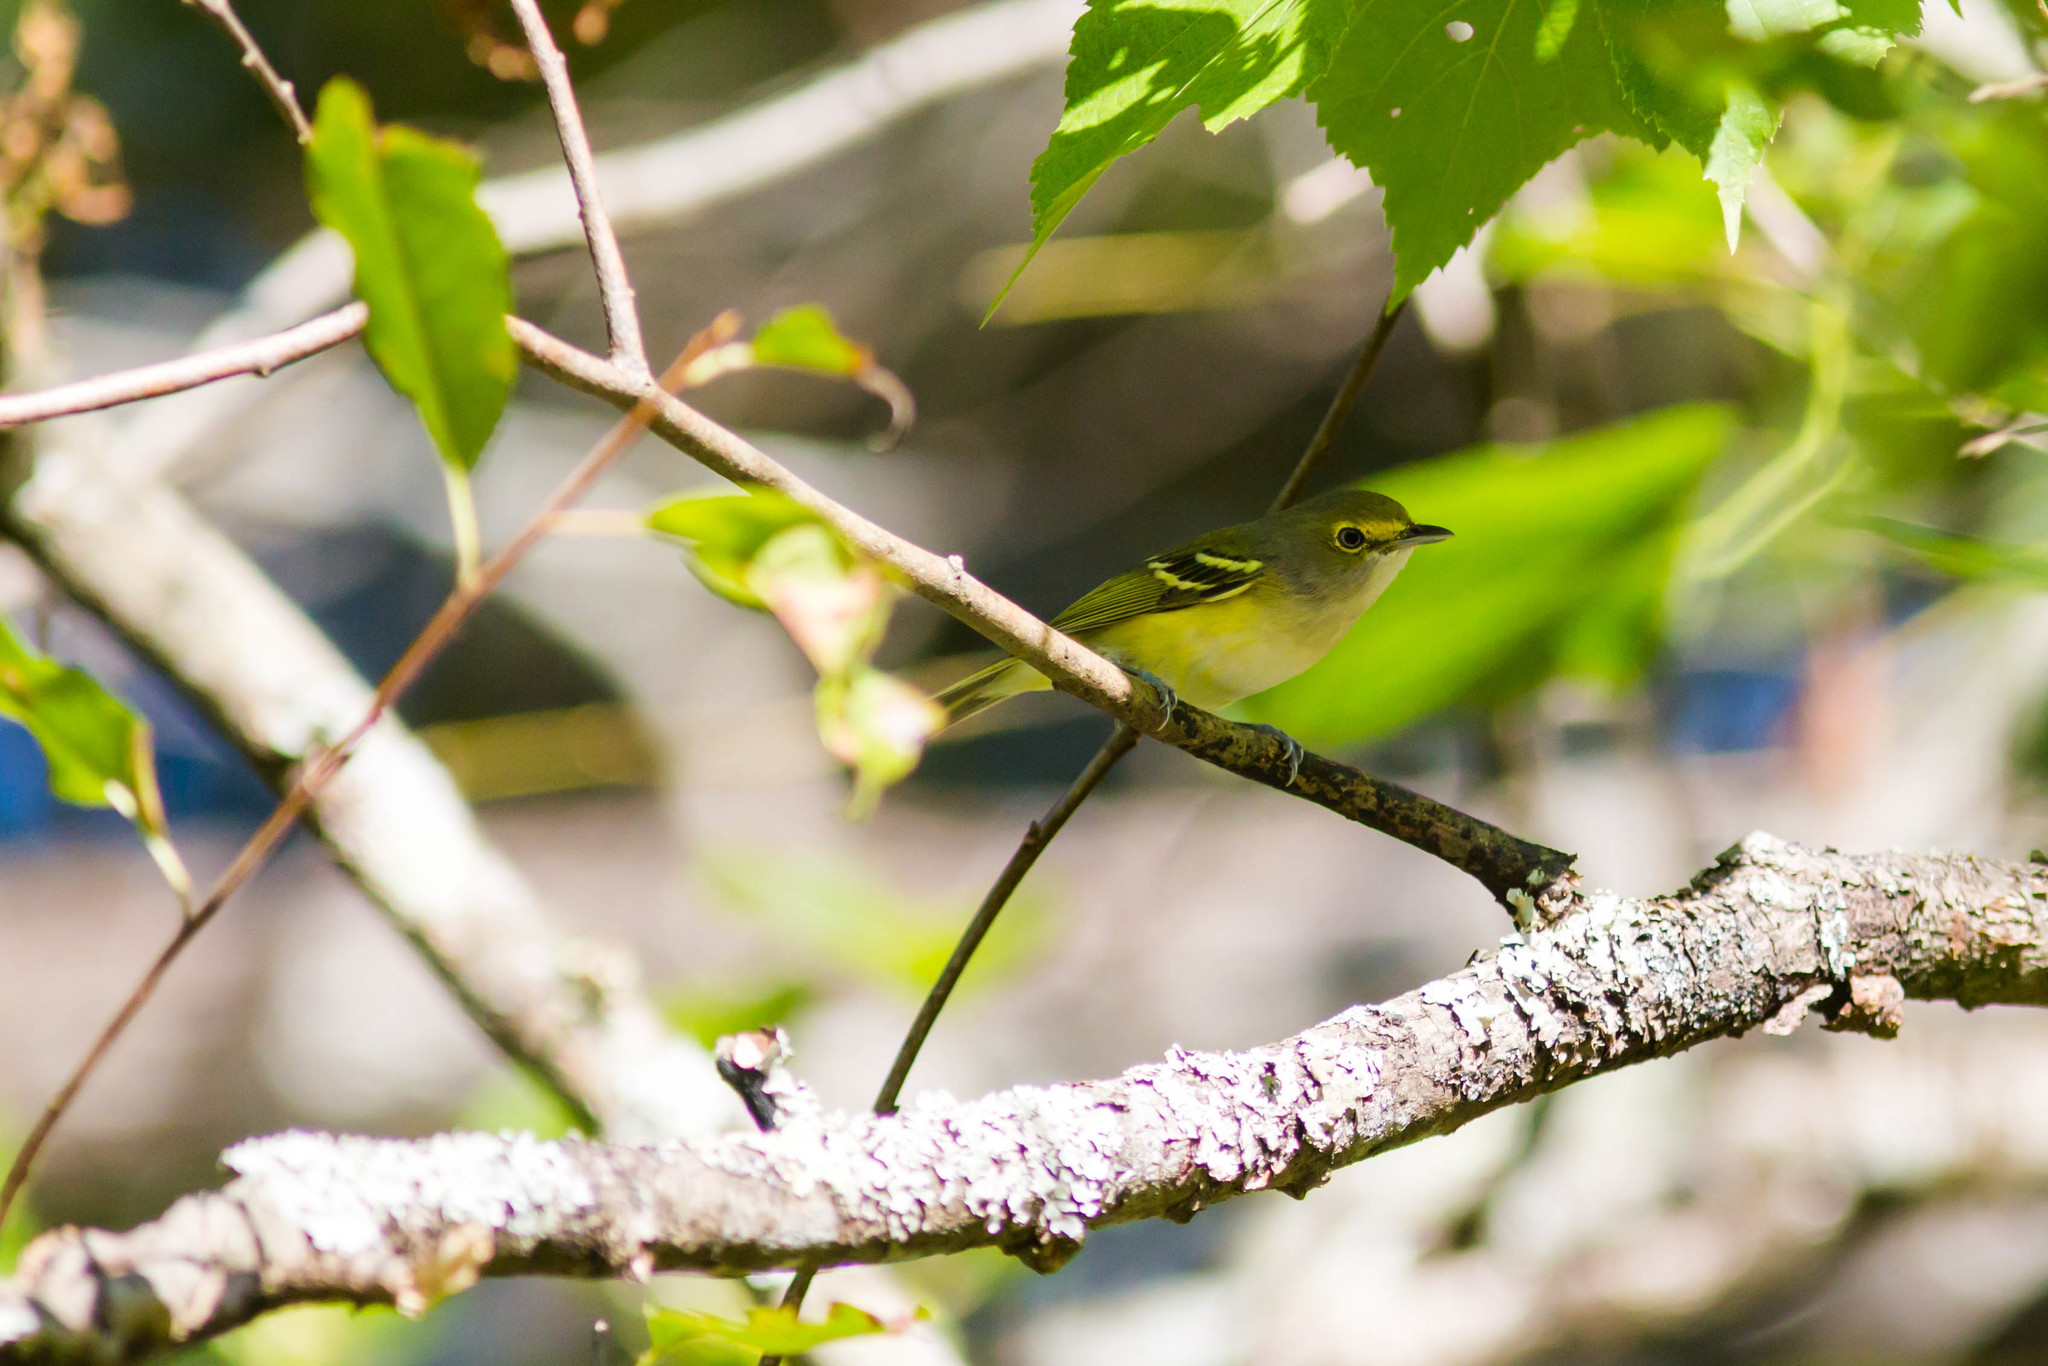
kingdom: Animalia
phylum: Chordata
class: Aves
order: Passeriformes
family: Vireonidae
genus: Vireo
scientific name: Vireo griseus
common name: White-eyed vireo
